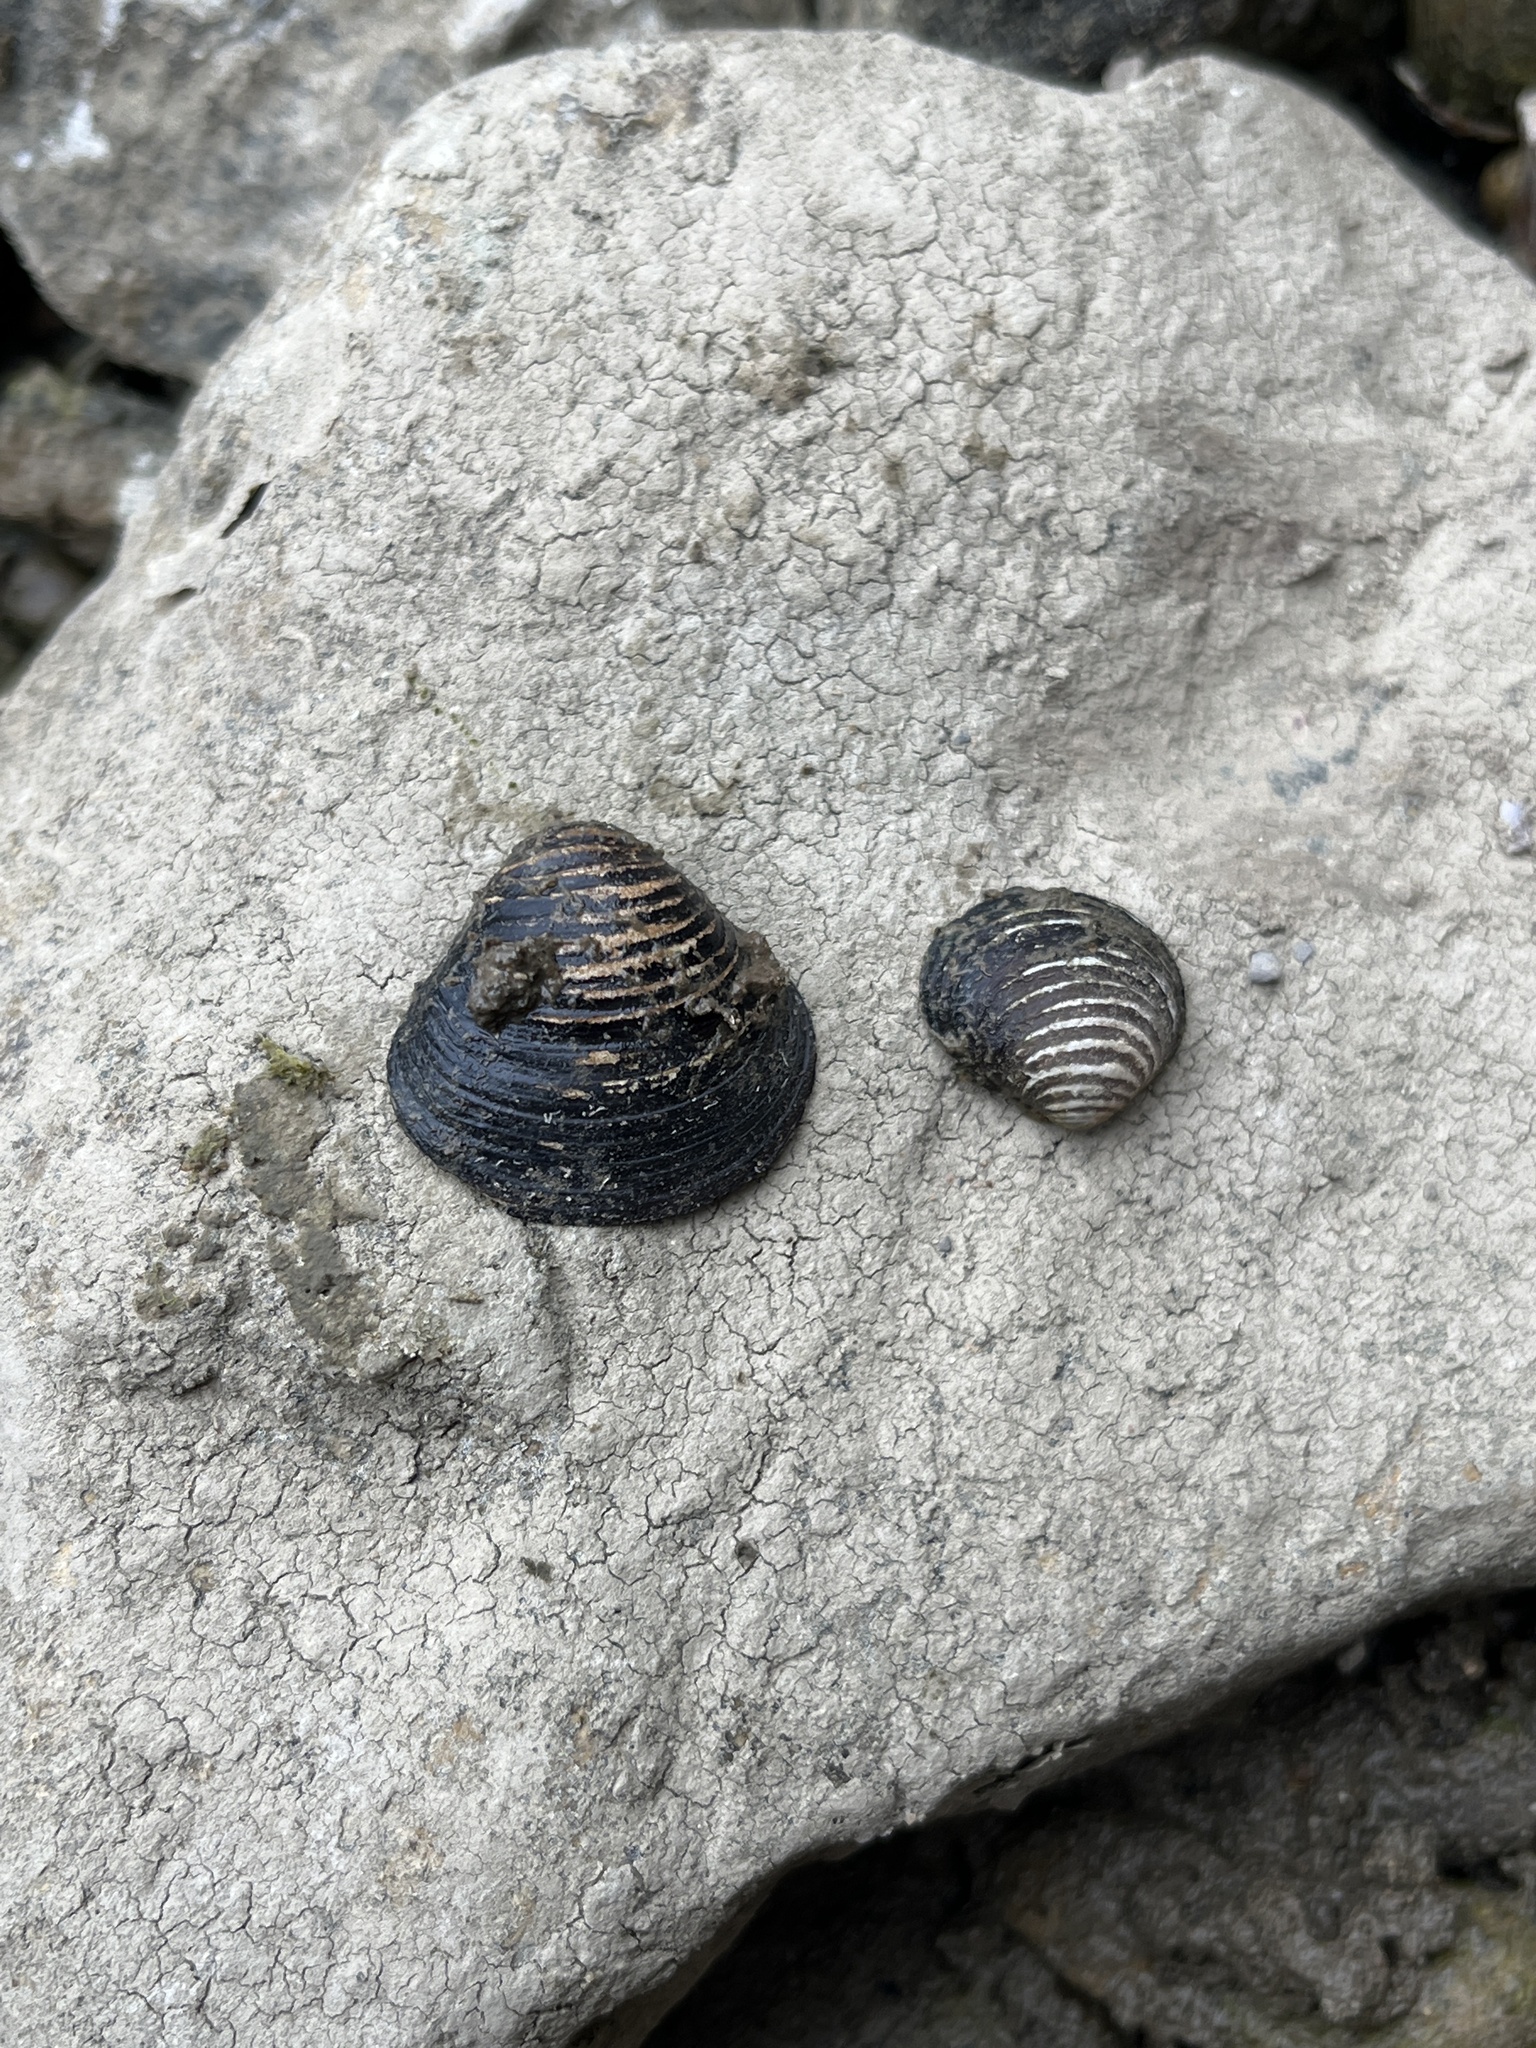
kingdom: Animalia
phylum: Mollusca
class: Bivalvia
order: Venerida
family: Cyrenidae
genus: Corbicula
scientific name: Corbicula fluminea
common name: Asian clam
